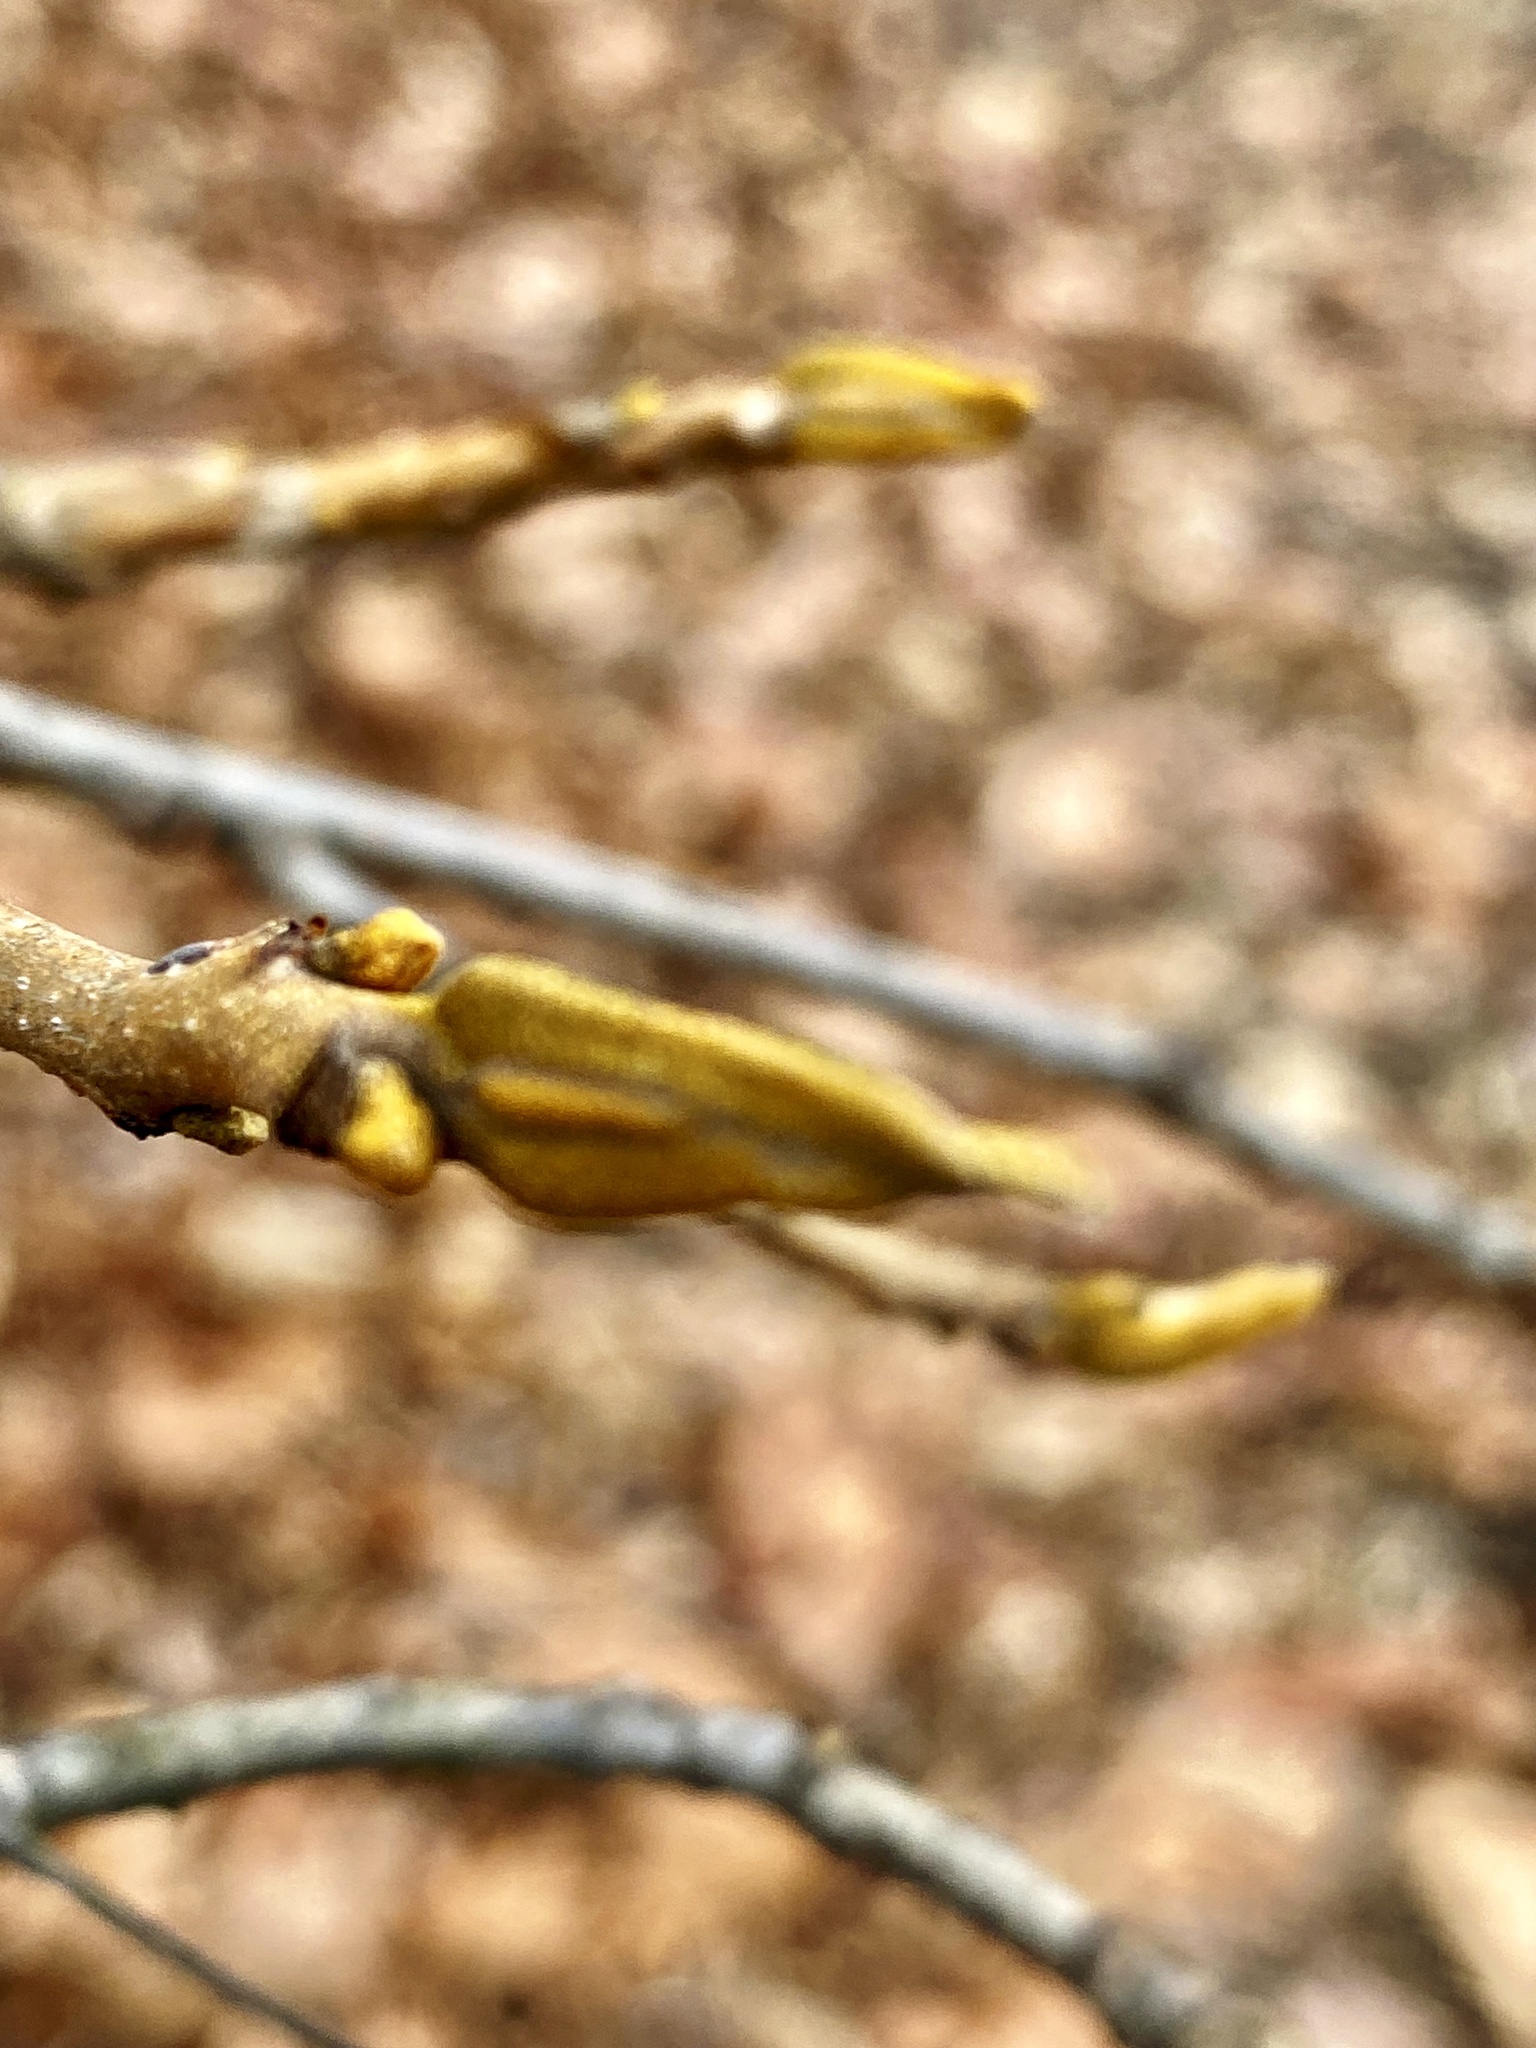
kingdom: Plantae
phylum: Tracheophyta
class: Magnoliopsida
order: Fagales
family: Juglandaceae
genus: Carya
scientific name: Carya cordiformis
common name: Bitternut hickory
